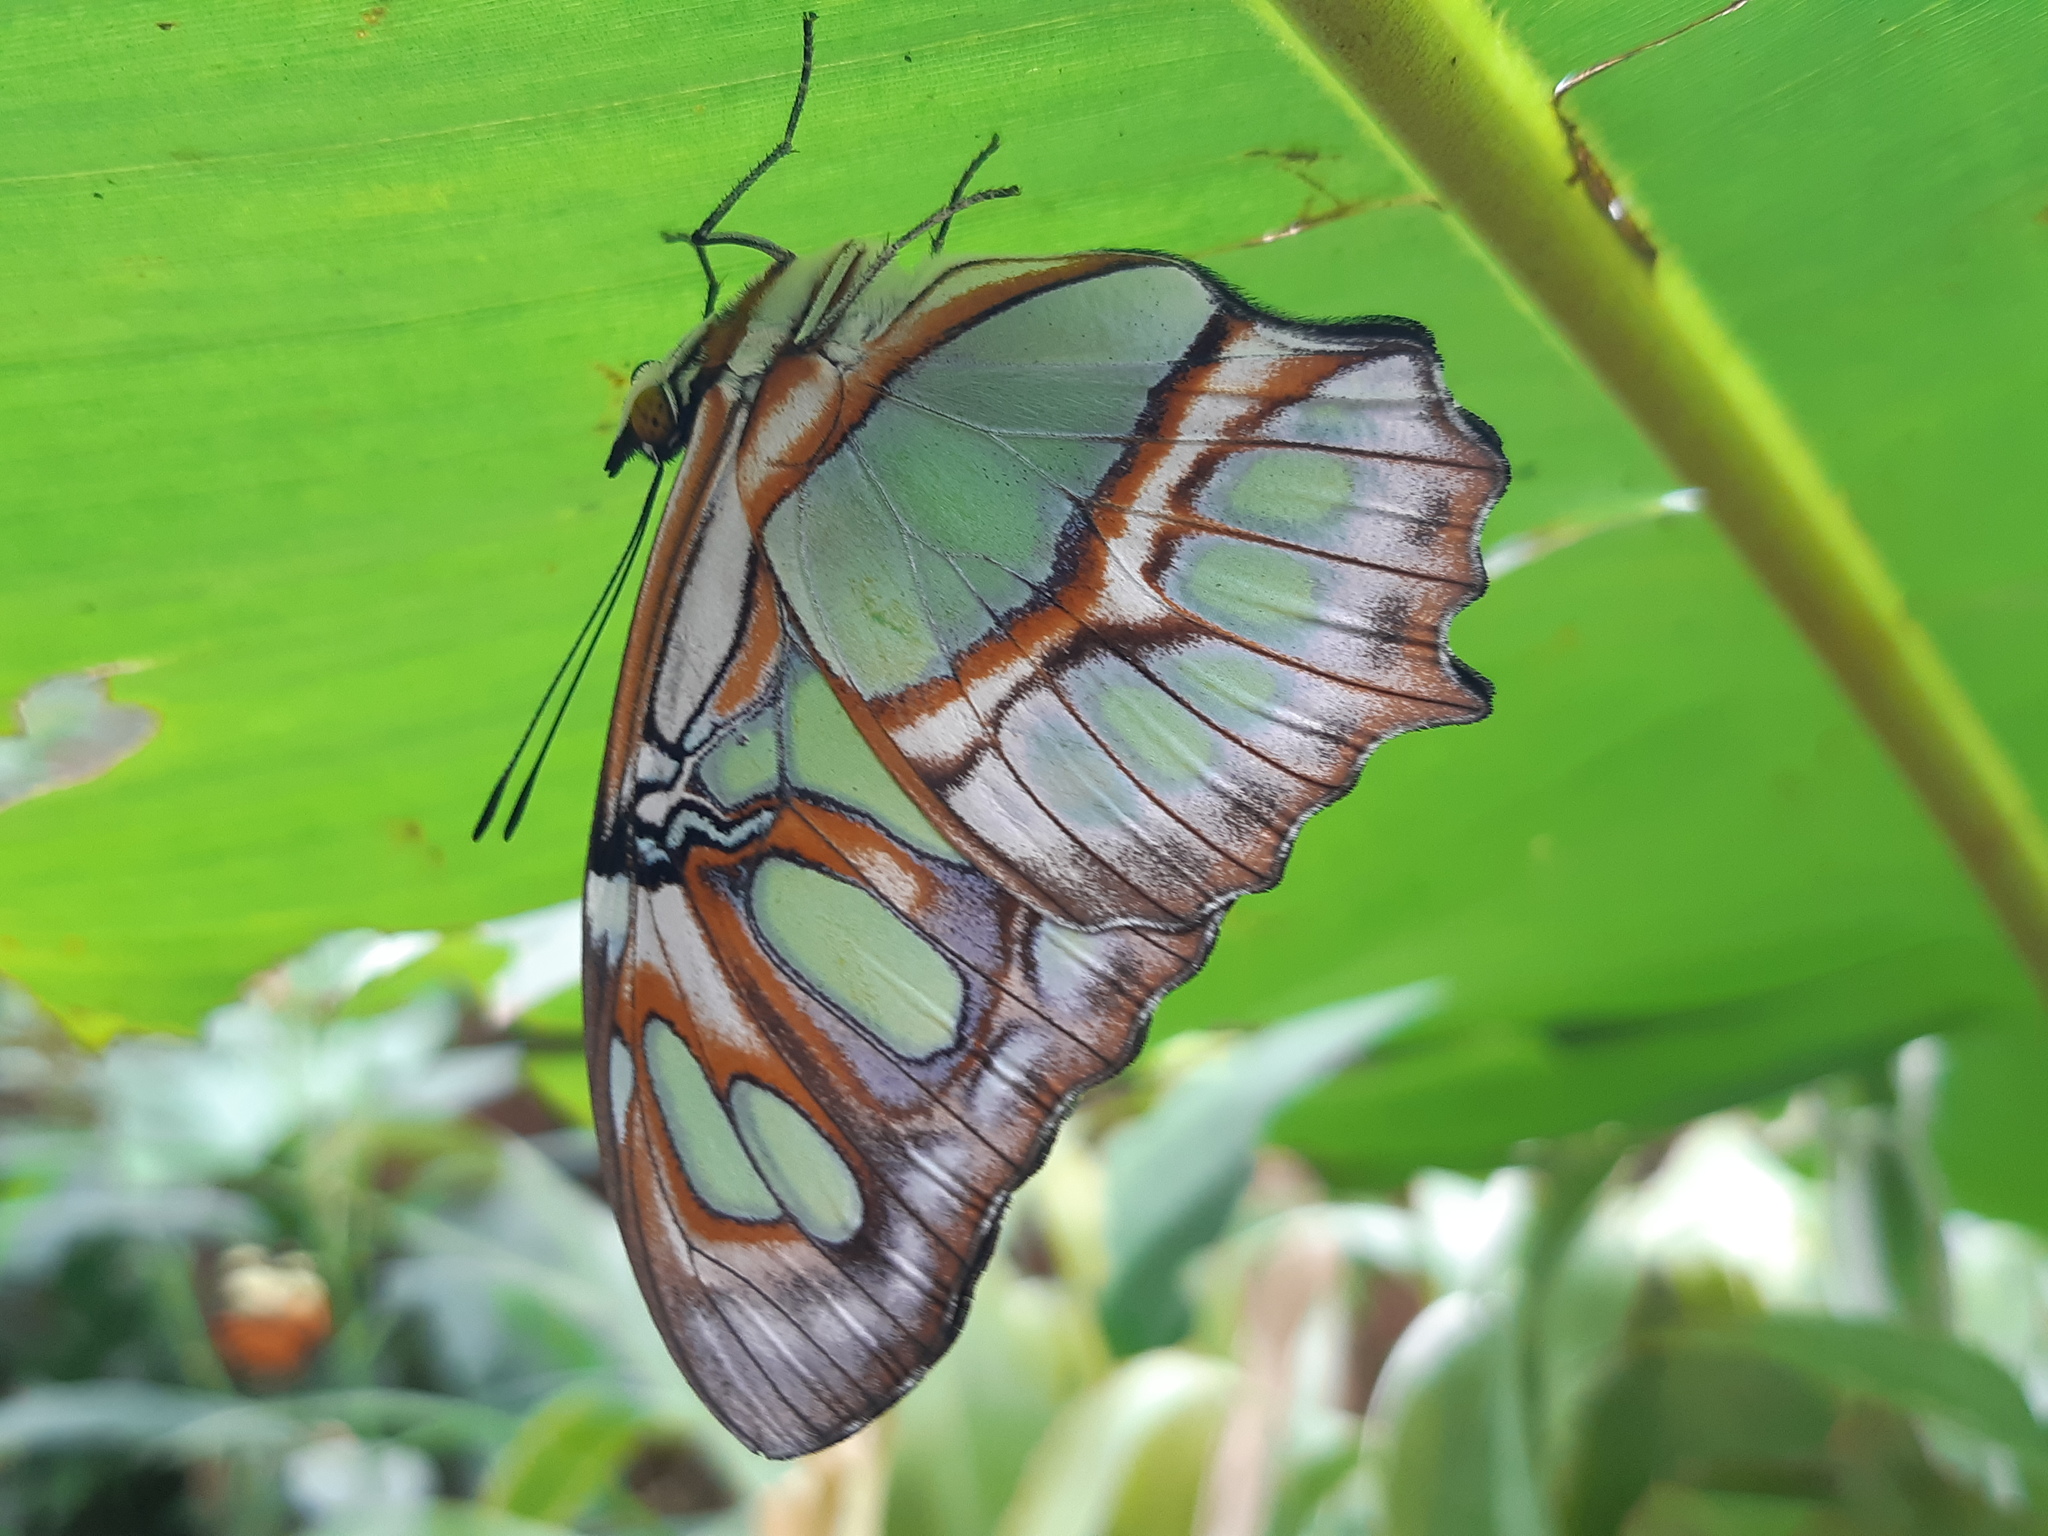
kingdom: Animalia
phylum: Arthropoda
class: Insecta
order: Lepidoptera
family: Nymphalidae
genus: Siproeta
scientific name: Siproeta stelenes
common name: Malachite
